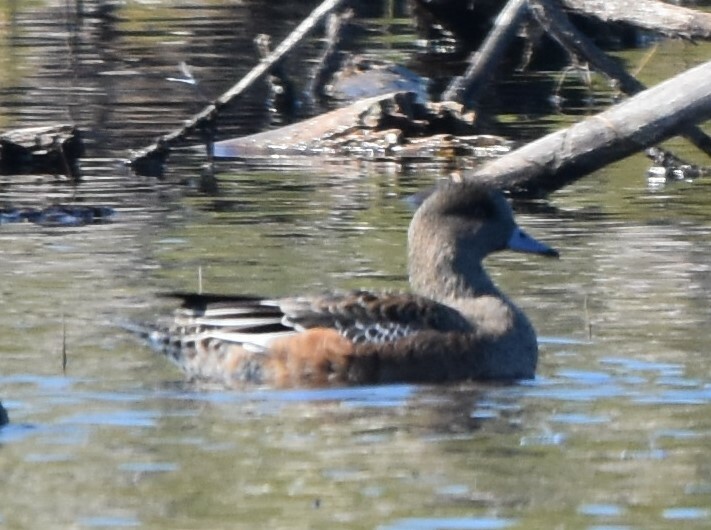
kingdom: Animalia
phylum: Chordata
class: Aves
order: Anseriformes
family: Anatidae
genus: Mareca
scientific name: Mareca americana
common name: American wigeon
